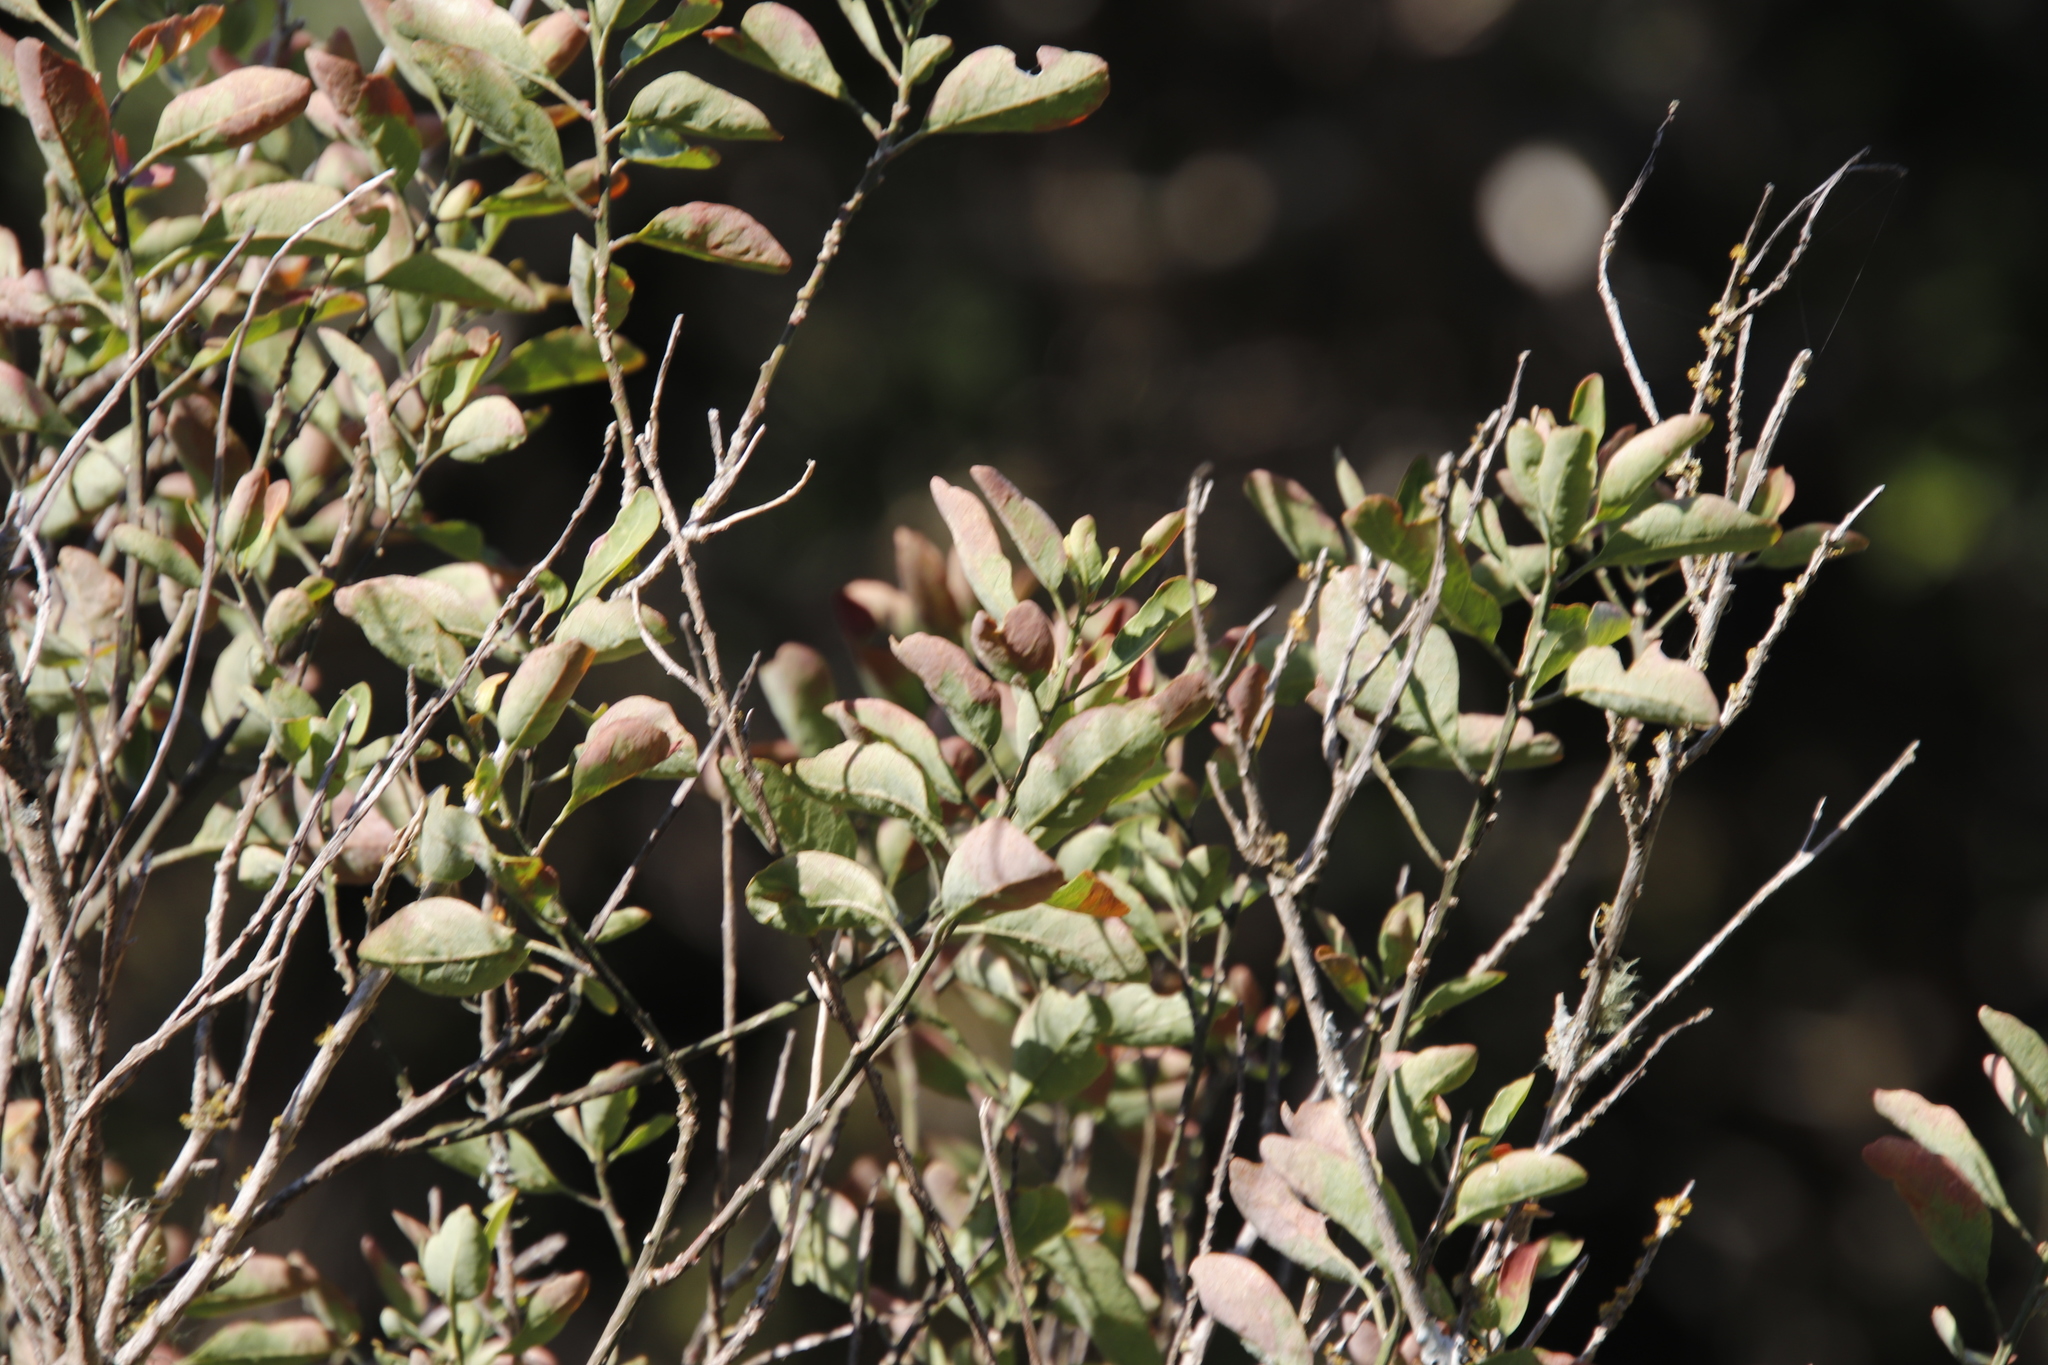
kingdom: Plantae
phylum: Tracheophyta
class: Magnoliopsida
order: Malpighiales
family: Peraceae
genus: Clutia
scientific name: Clutia pulchella
